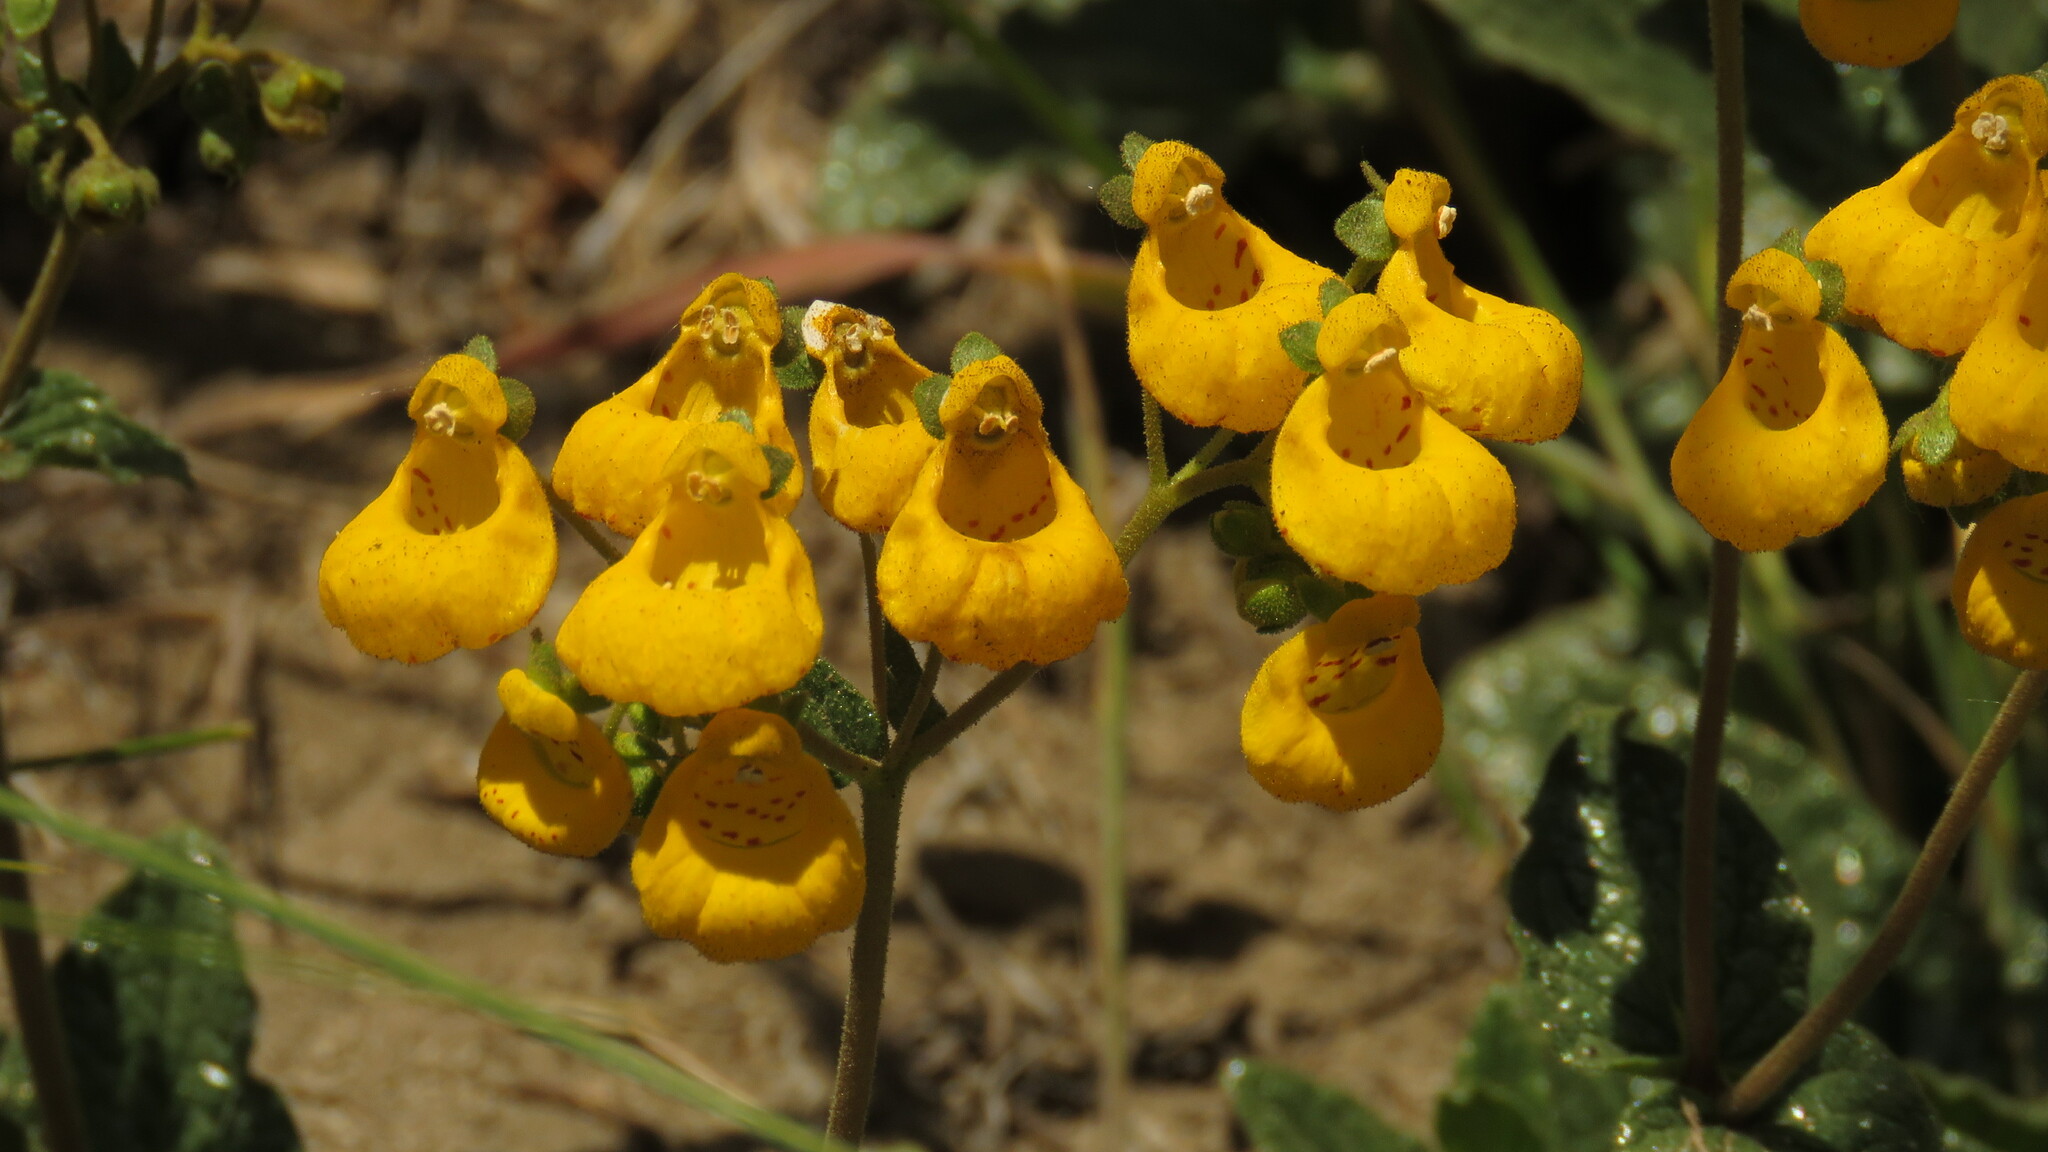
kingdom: Plantae
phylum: Tracheophyta
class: Magnoliopsida
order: Lamiales
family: Calceolariaceae
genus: Calceolaria
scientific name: Calceolaria germainii
